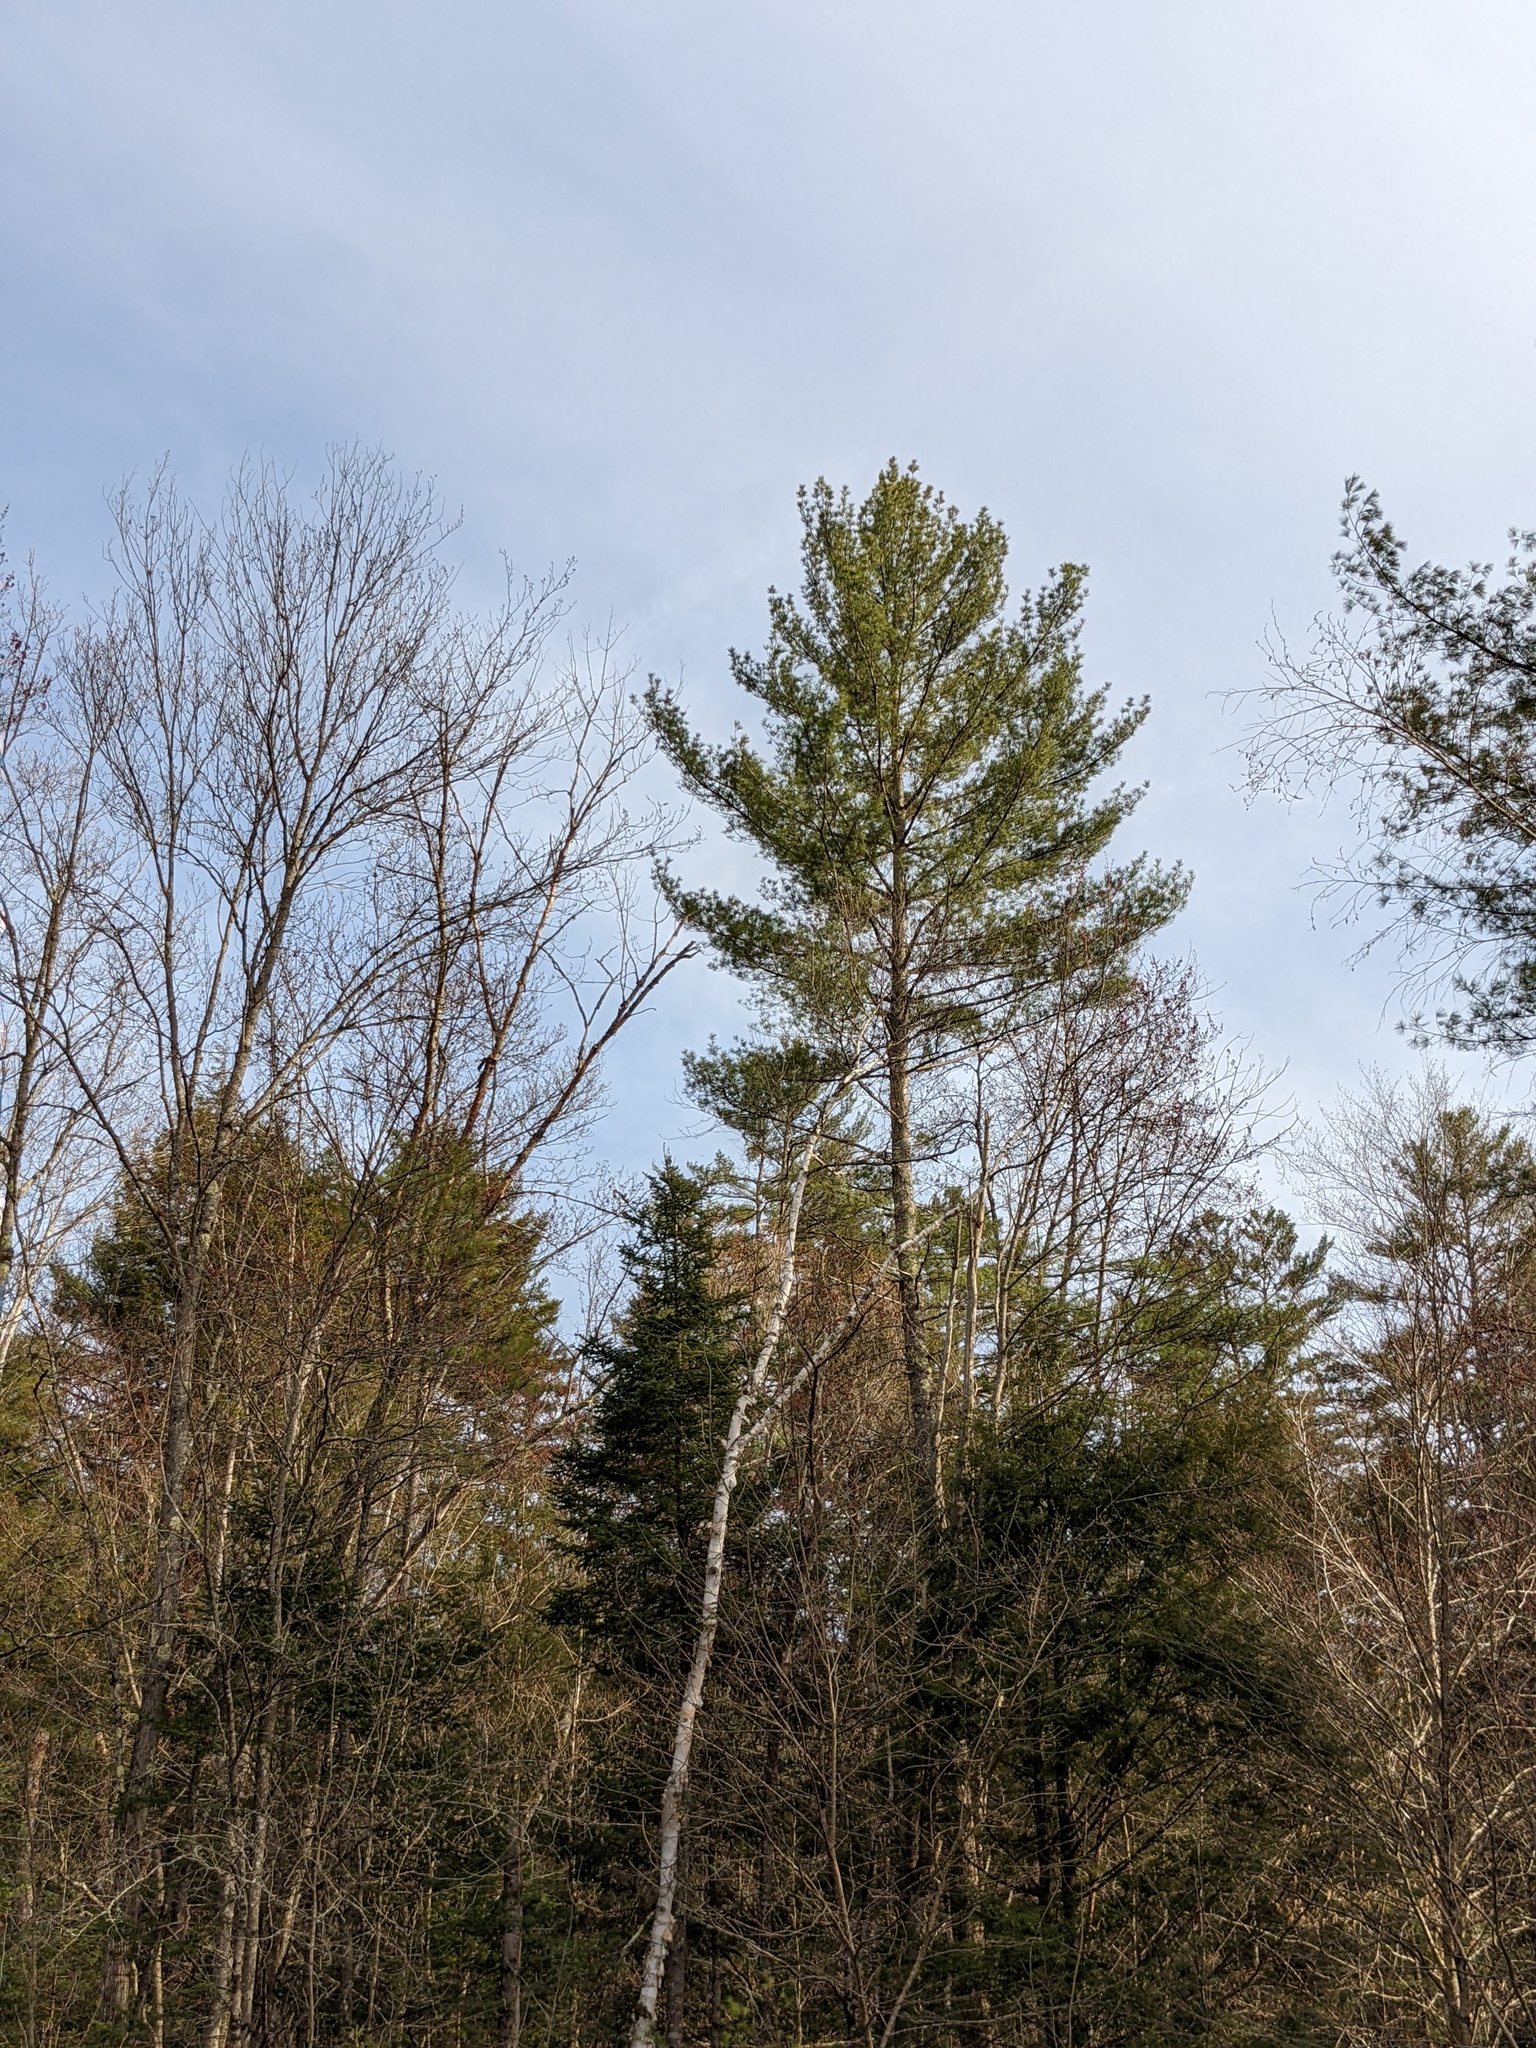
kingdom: Plantae
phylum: Tracheophyta
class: Pinopsida
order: Pinales
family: Pinaceae
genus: Pinus
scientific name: Pinus strobus
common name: Weymouth pine
